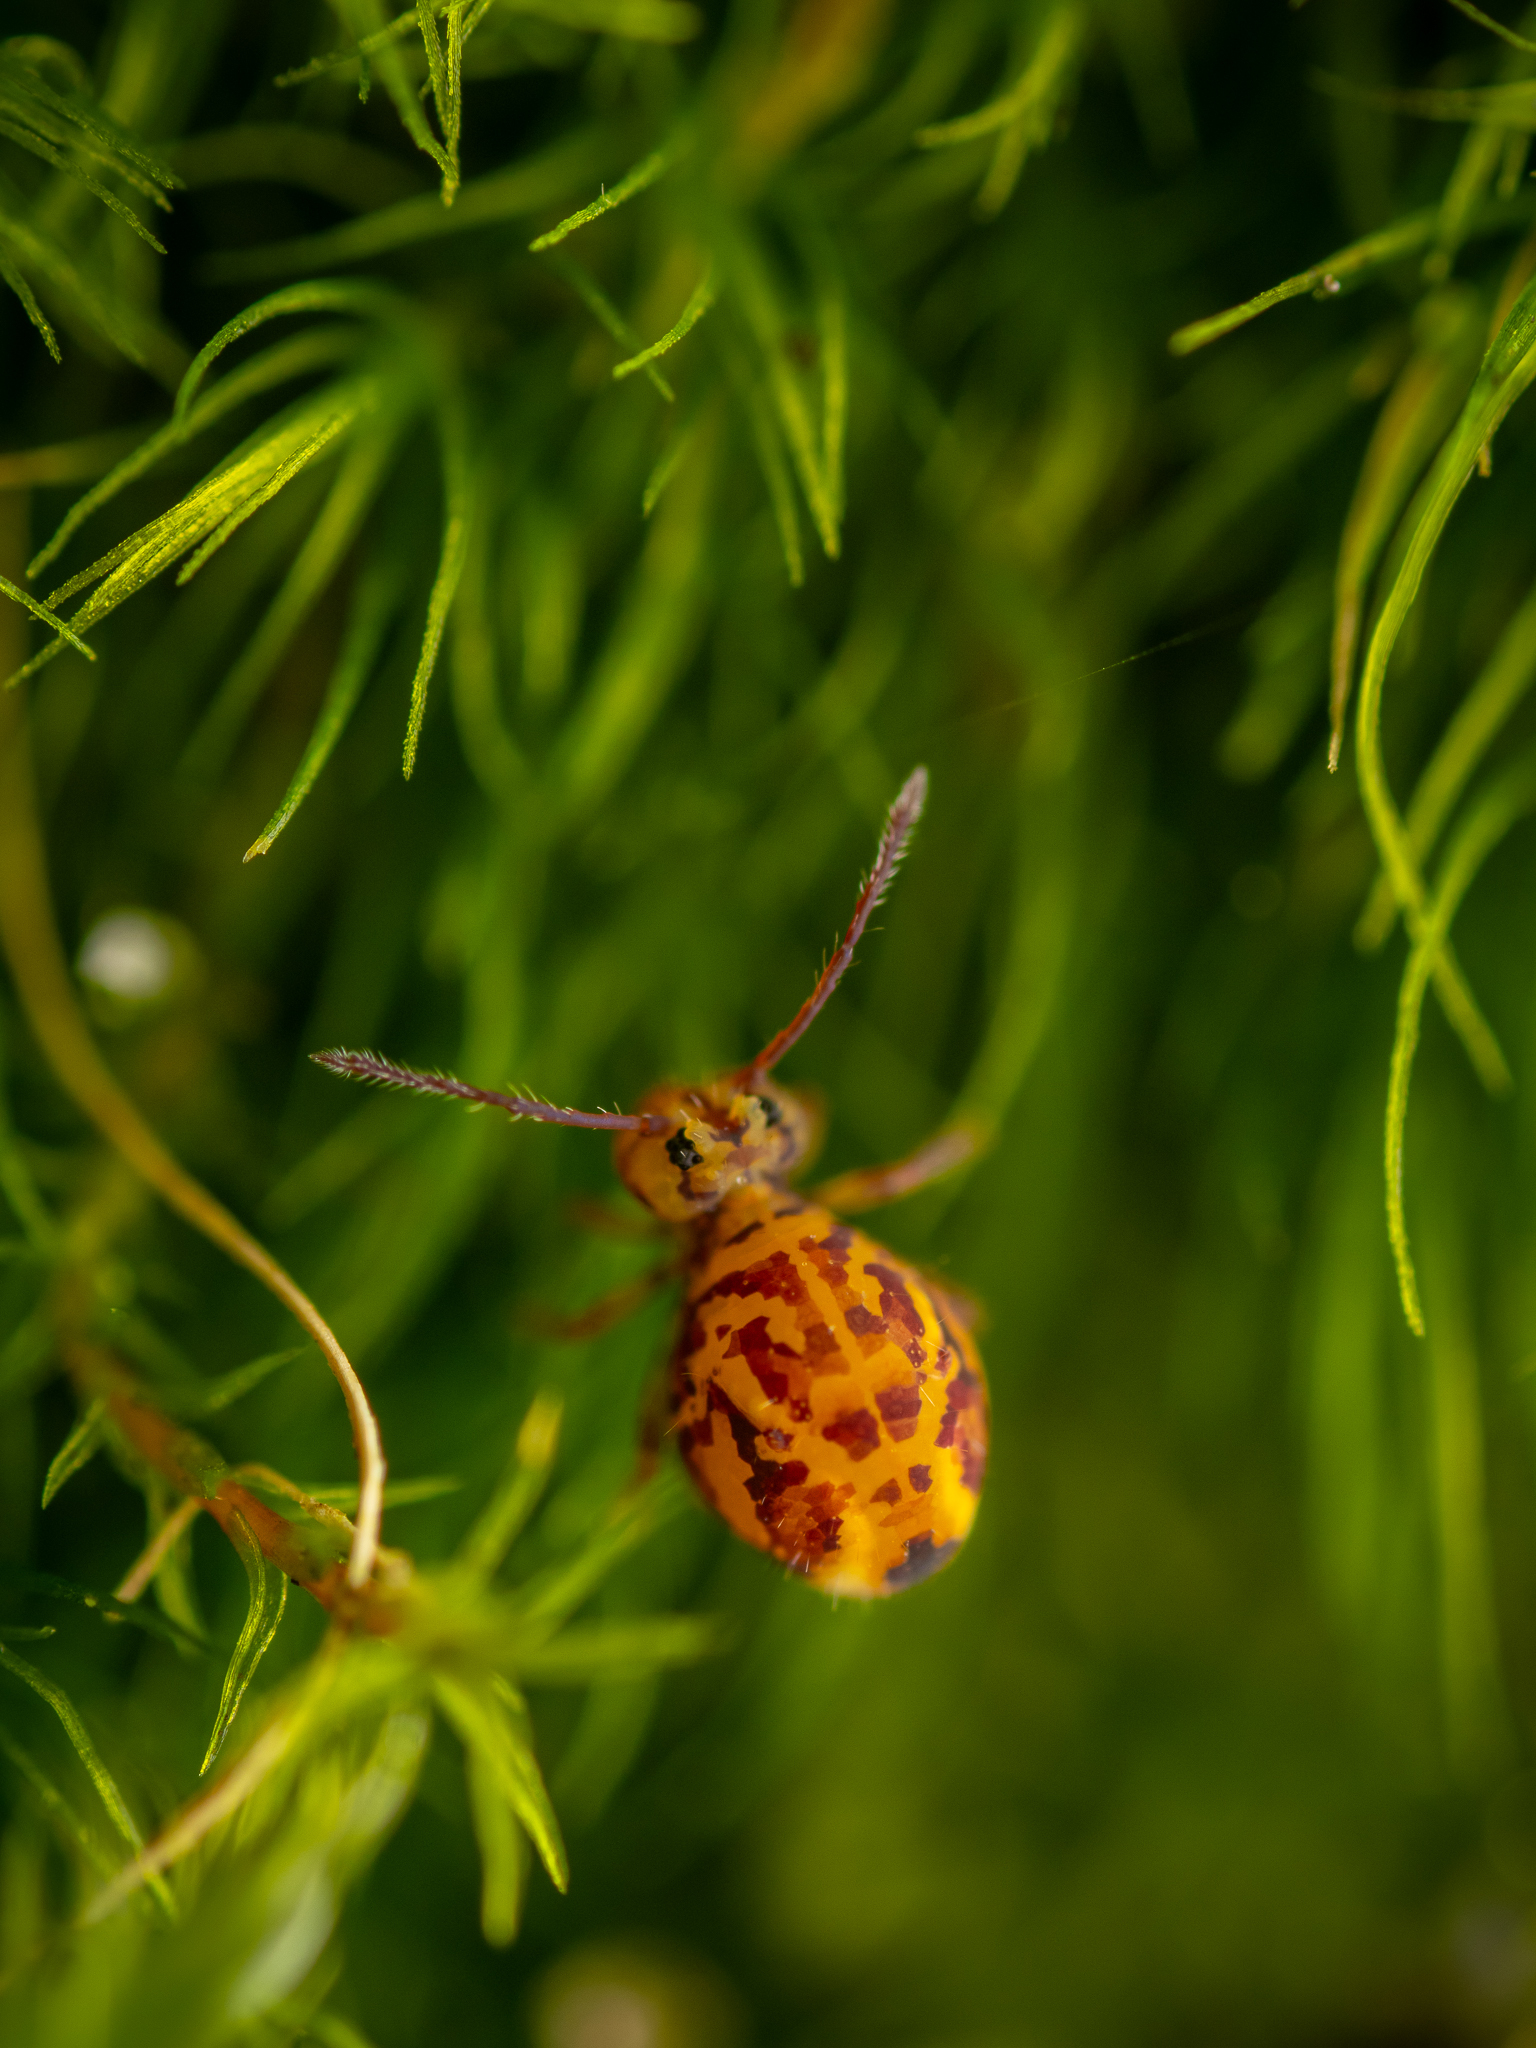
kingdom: Animalia
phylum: Arthropoda
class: Collembola
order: Symphypleona
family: Dicyrtomidae
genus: Dicyrtomina
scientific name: Dicyrtomina ornata
